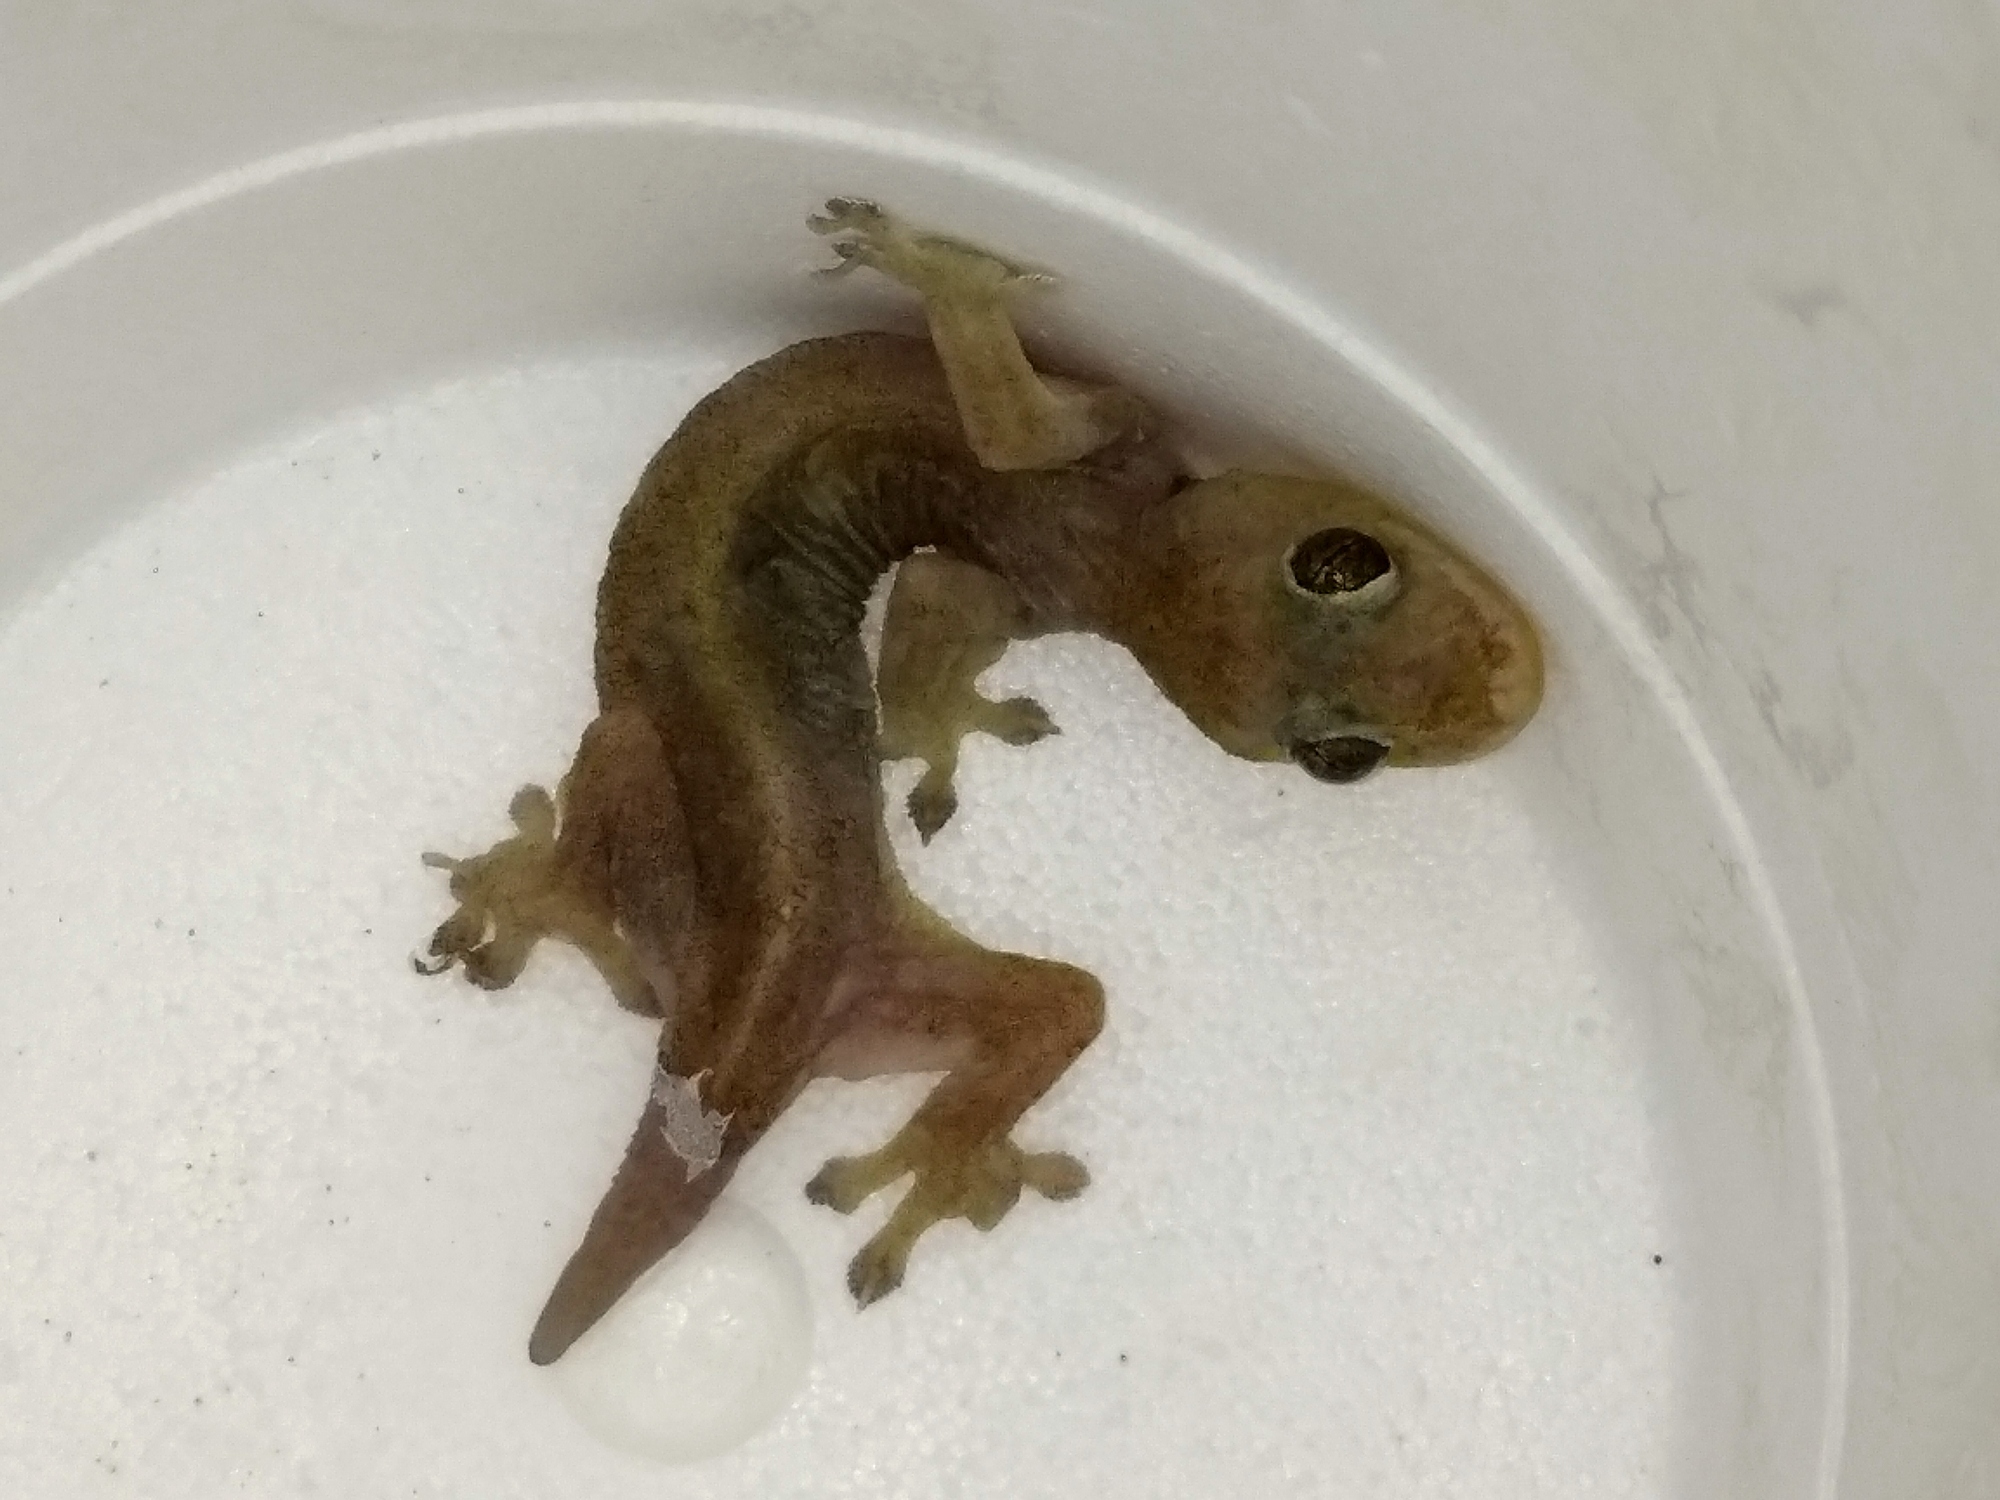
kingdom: Animalia
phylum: Chordata
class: Squamata
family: Gekkonidae
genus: Gehyra
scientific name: Gehyra mutilata
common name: Stump-toed gecko
